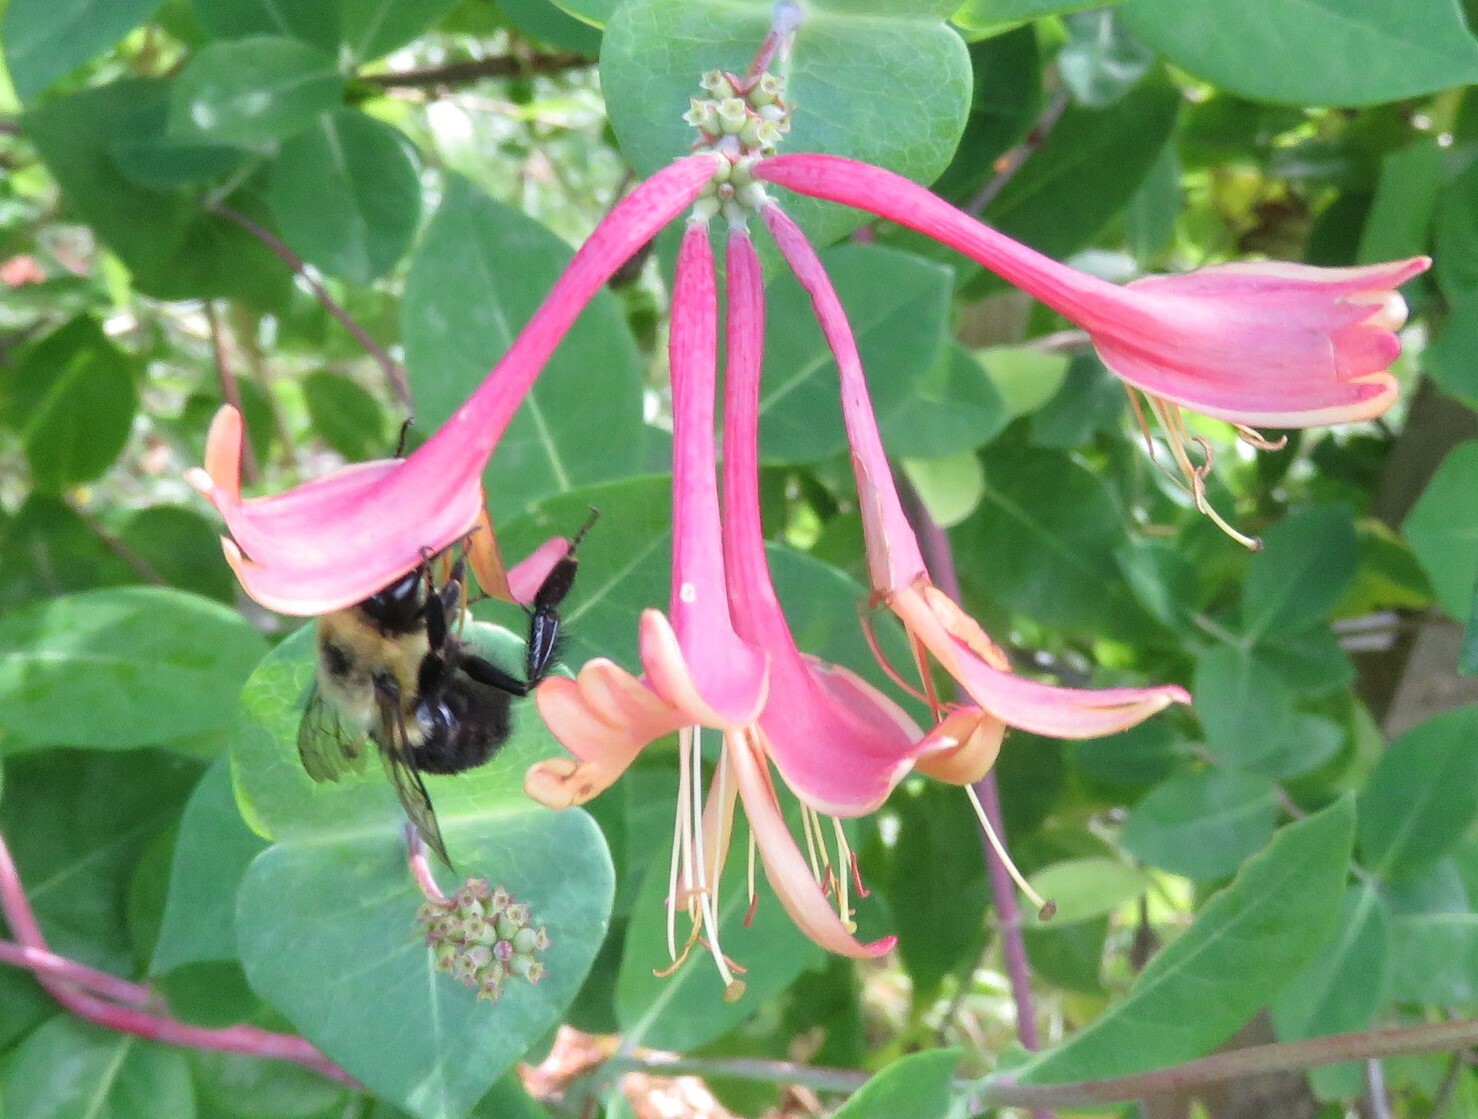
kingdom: Animalia
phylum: Arthropoda
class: Insecta
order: Hymenoptera
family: Apidae
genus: Bombus
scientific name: Bombus impatiens
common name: Common eastern bumble bee
